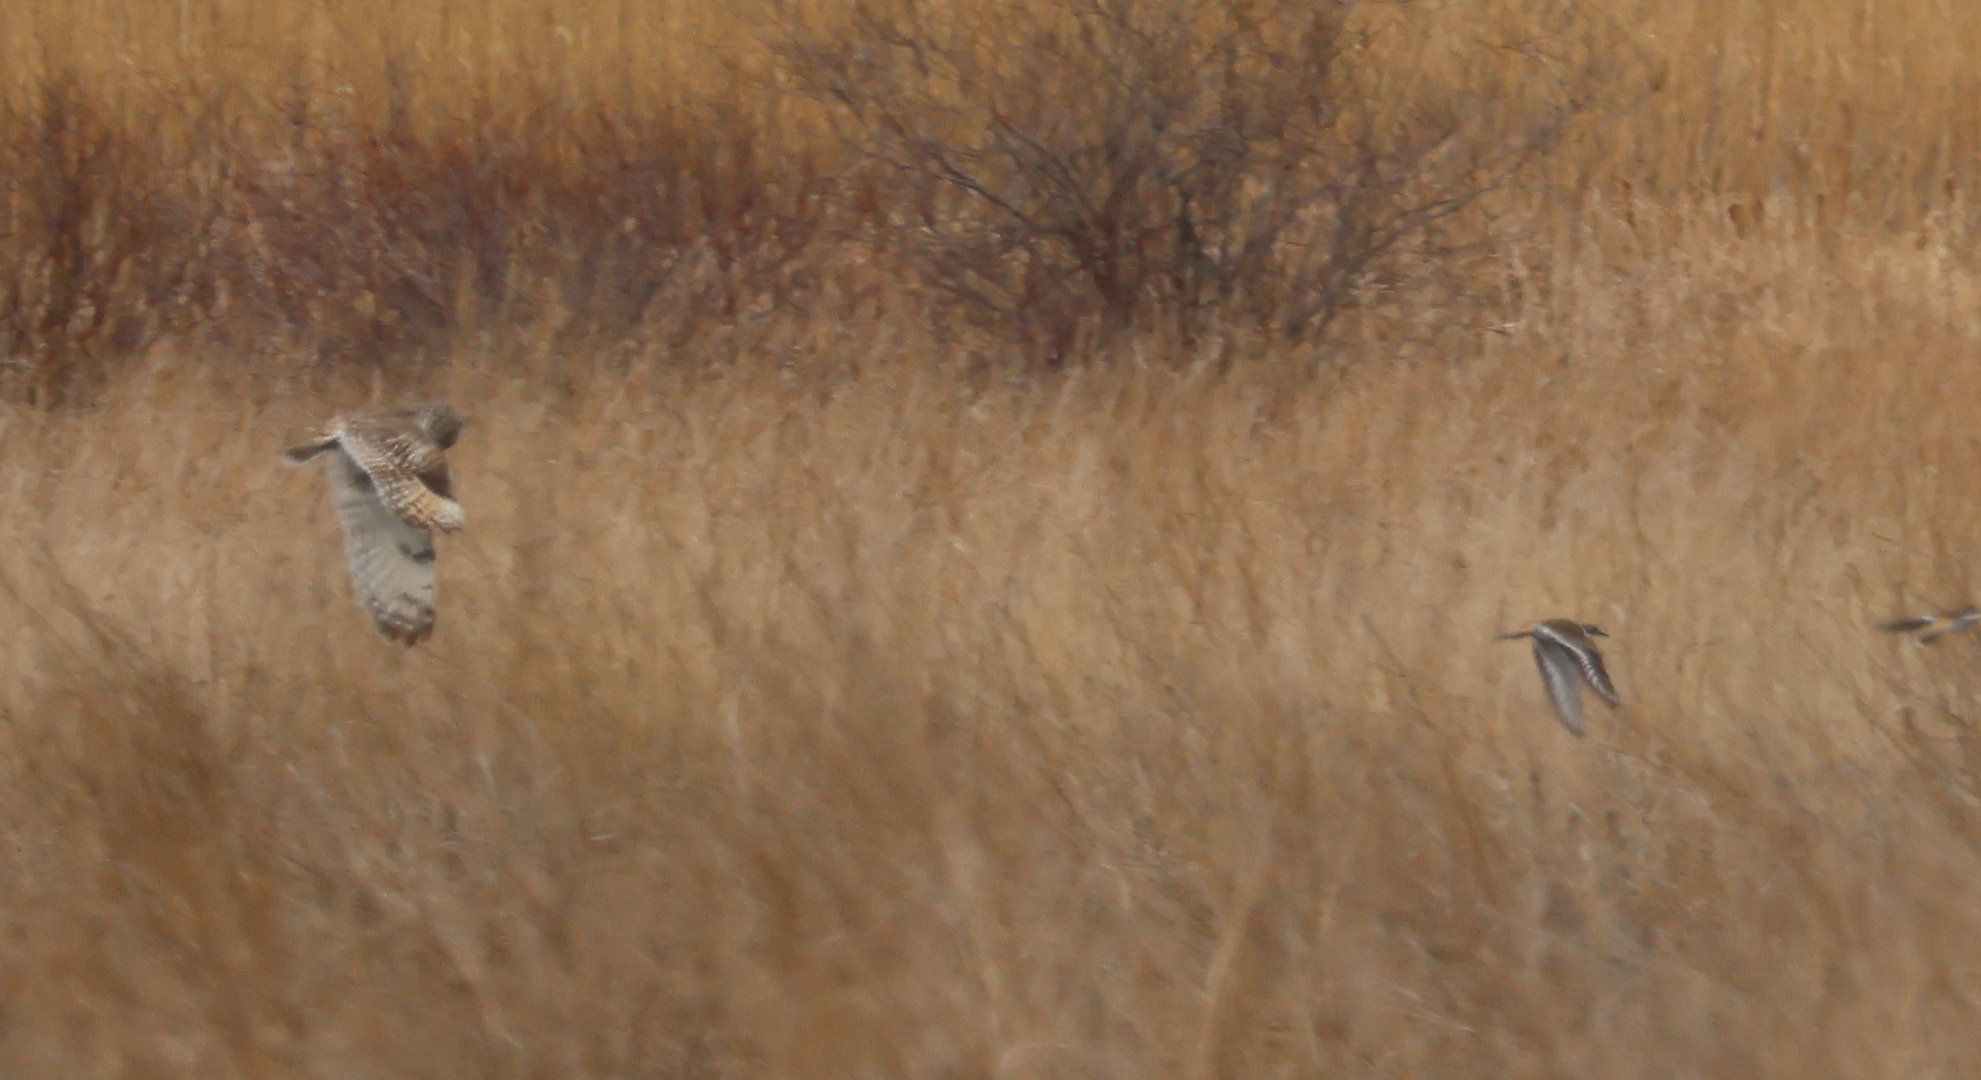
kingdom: Animalia
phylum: Chordata
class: Aves
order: Charadriiformes
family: Charadriidae
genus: Charadrius
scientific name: Charadrius vociferus
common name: Killdeer
